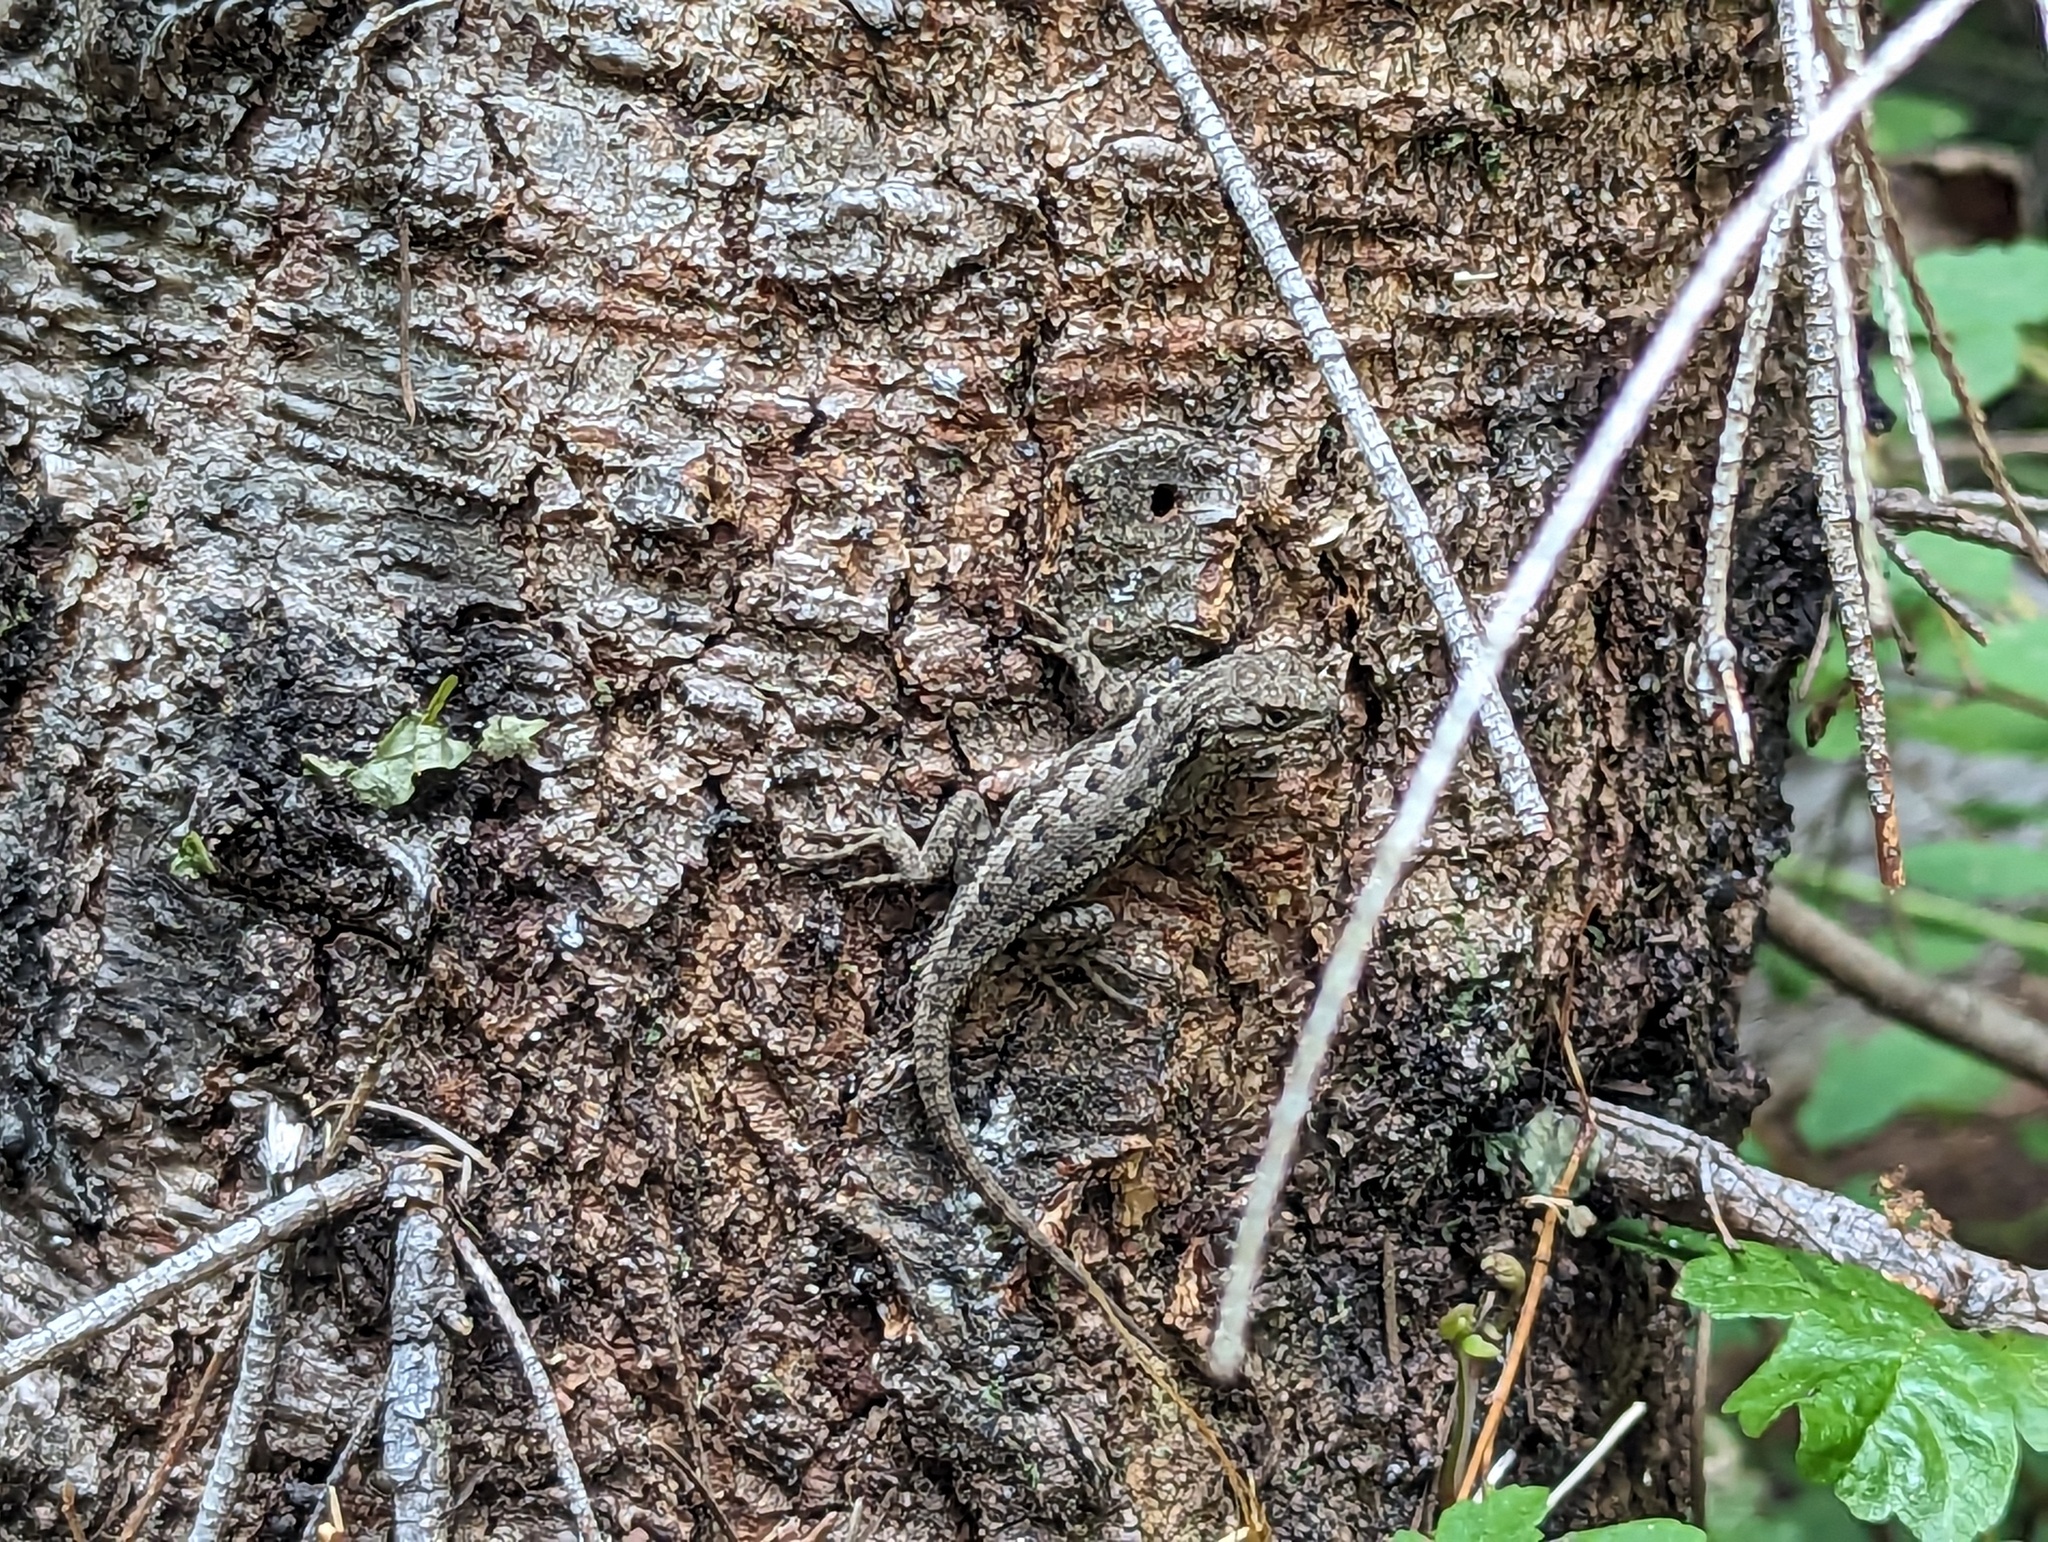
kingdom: Animalia
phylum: Chordata
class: Squamata
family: Phrynosomatidae
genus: Sceloporus
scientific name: Sceloporus occidentalis
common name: Western fence lizard
